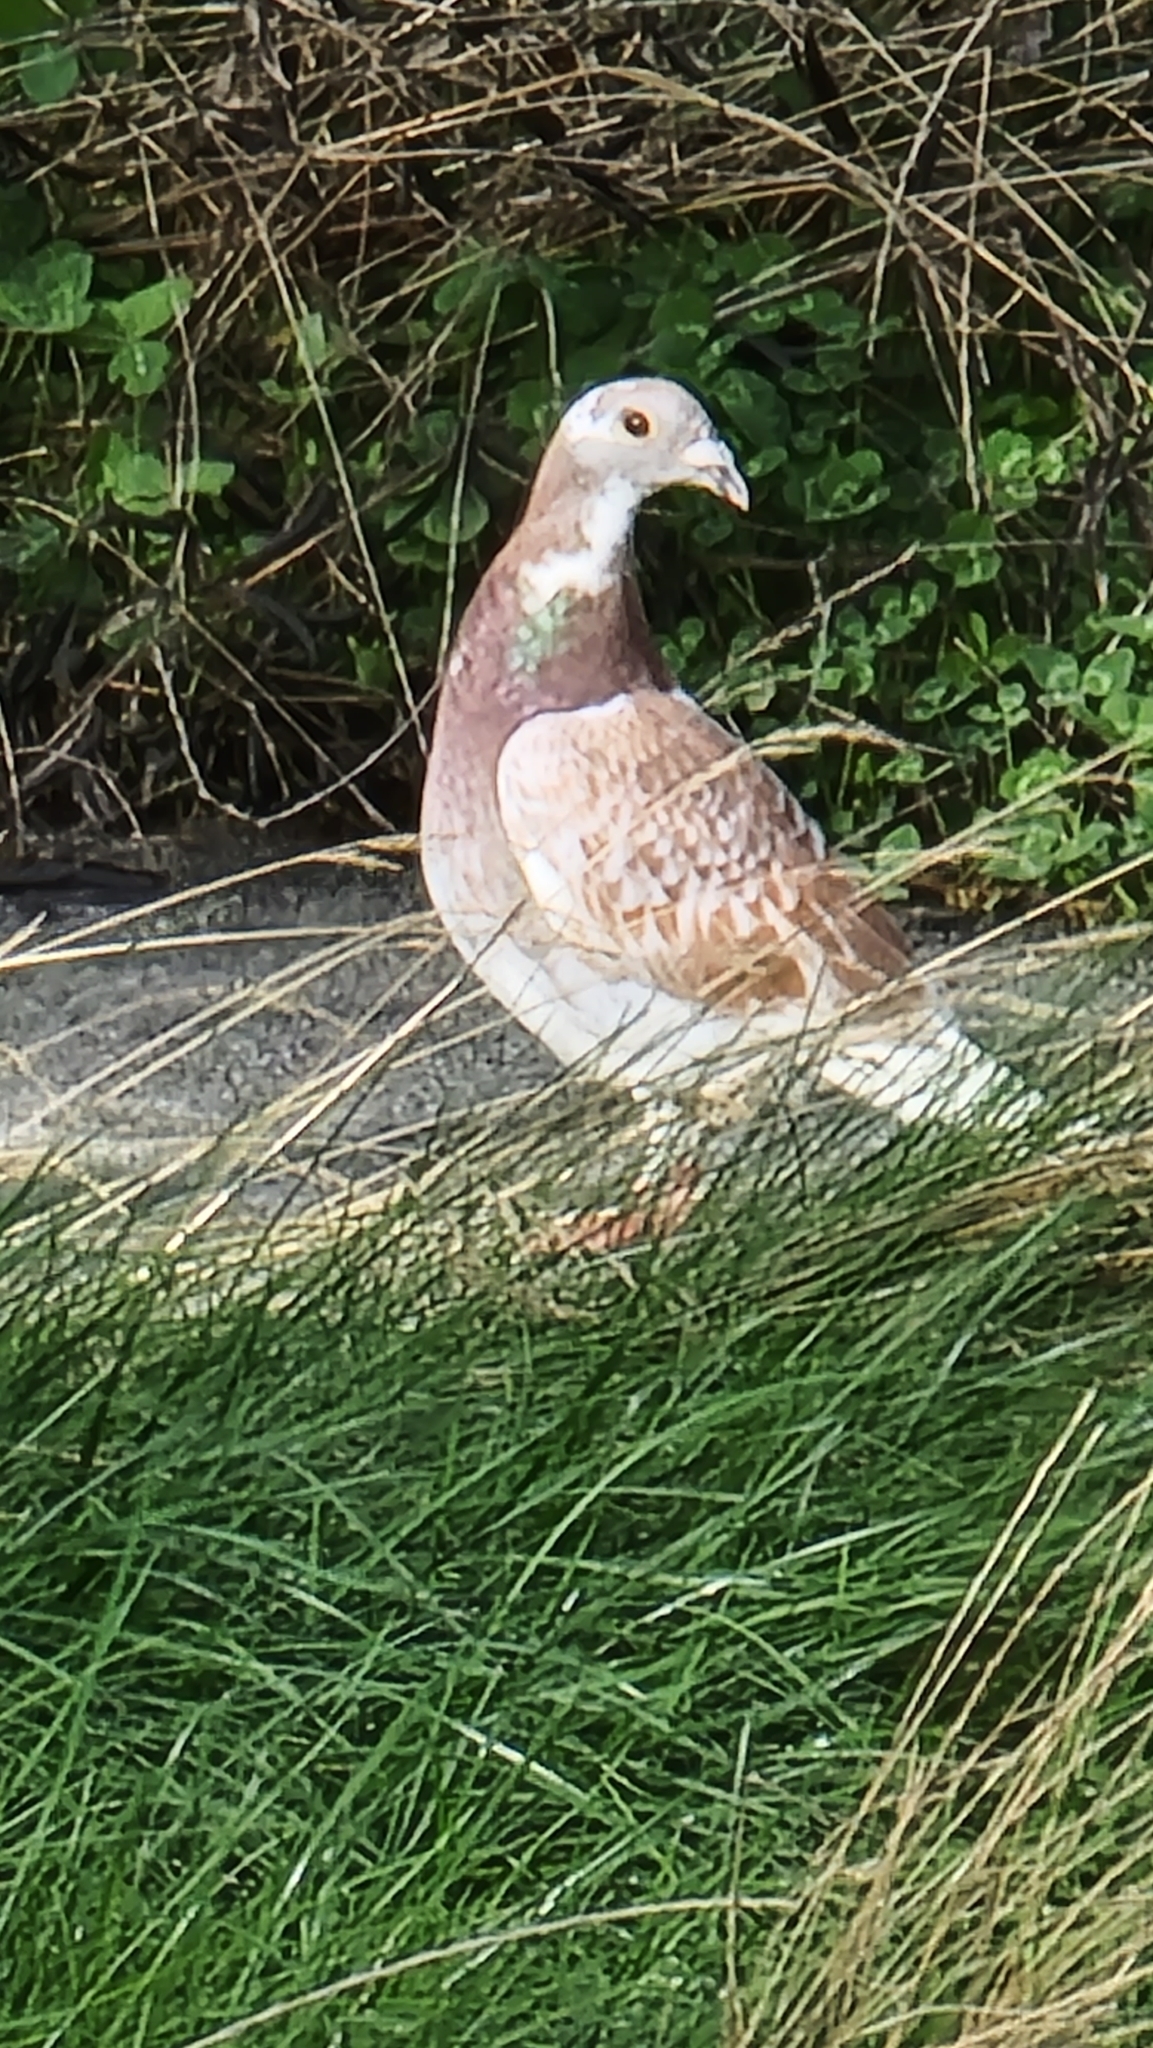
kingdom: Animalia
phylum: Chordata
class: Aves
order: Columbiformes
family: Columbidae
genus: Columba
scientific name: Columba livia
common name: Rock pigeon
